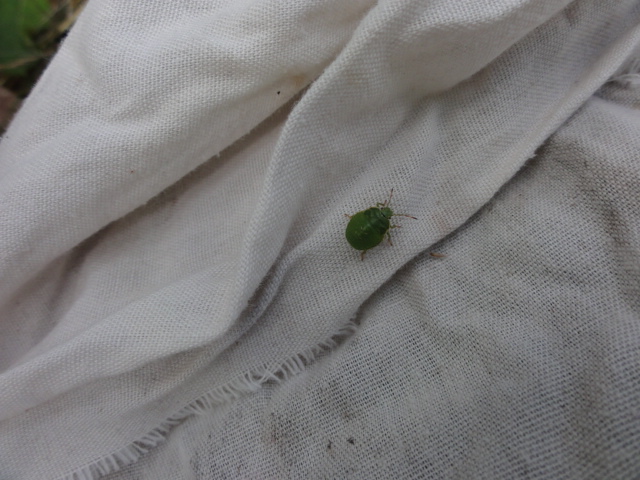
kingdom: Animalia
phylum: Arthropoda
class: Insecta
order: Hemiptera
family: Pentatomidae
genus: Palomena
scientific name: Palomena prasina
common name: Green shieldbug
